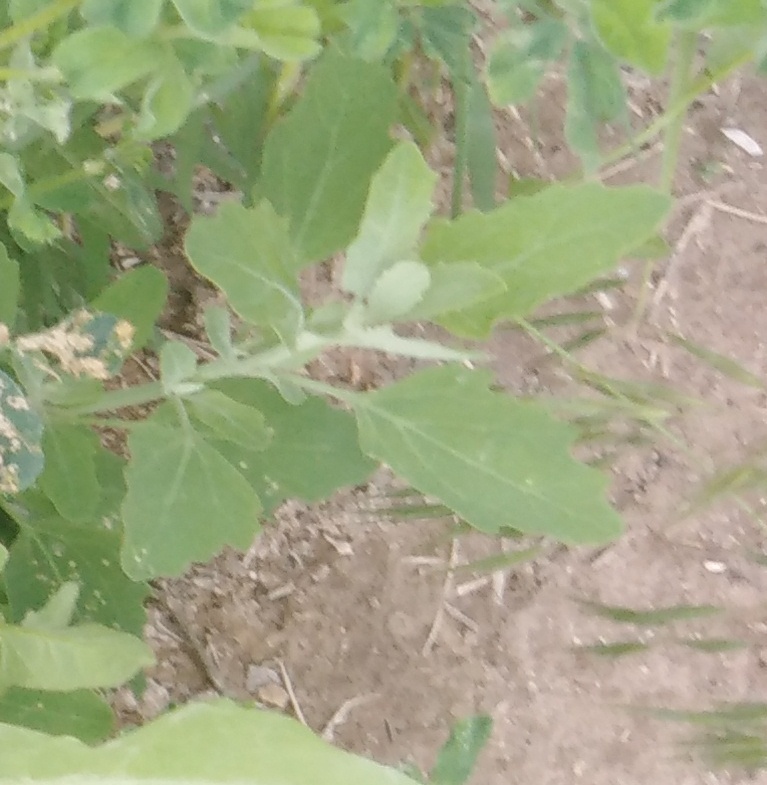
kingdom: Plantae
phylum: Tracheophyta
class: Magnoliopsida
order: Caryophyllales
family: Amaranthaceae
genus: Chenopodium
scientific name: Chenopodium album
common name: Fat-hen
